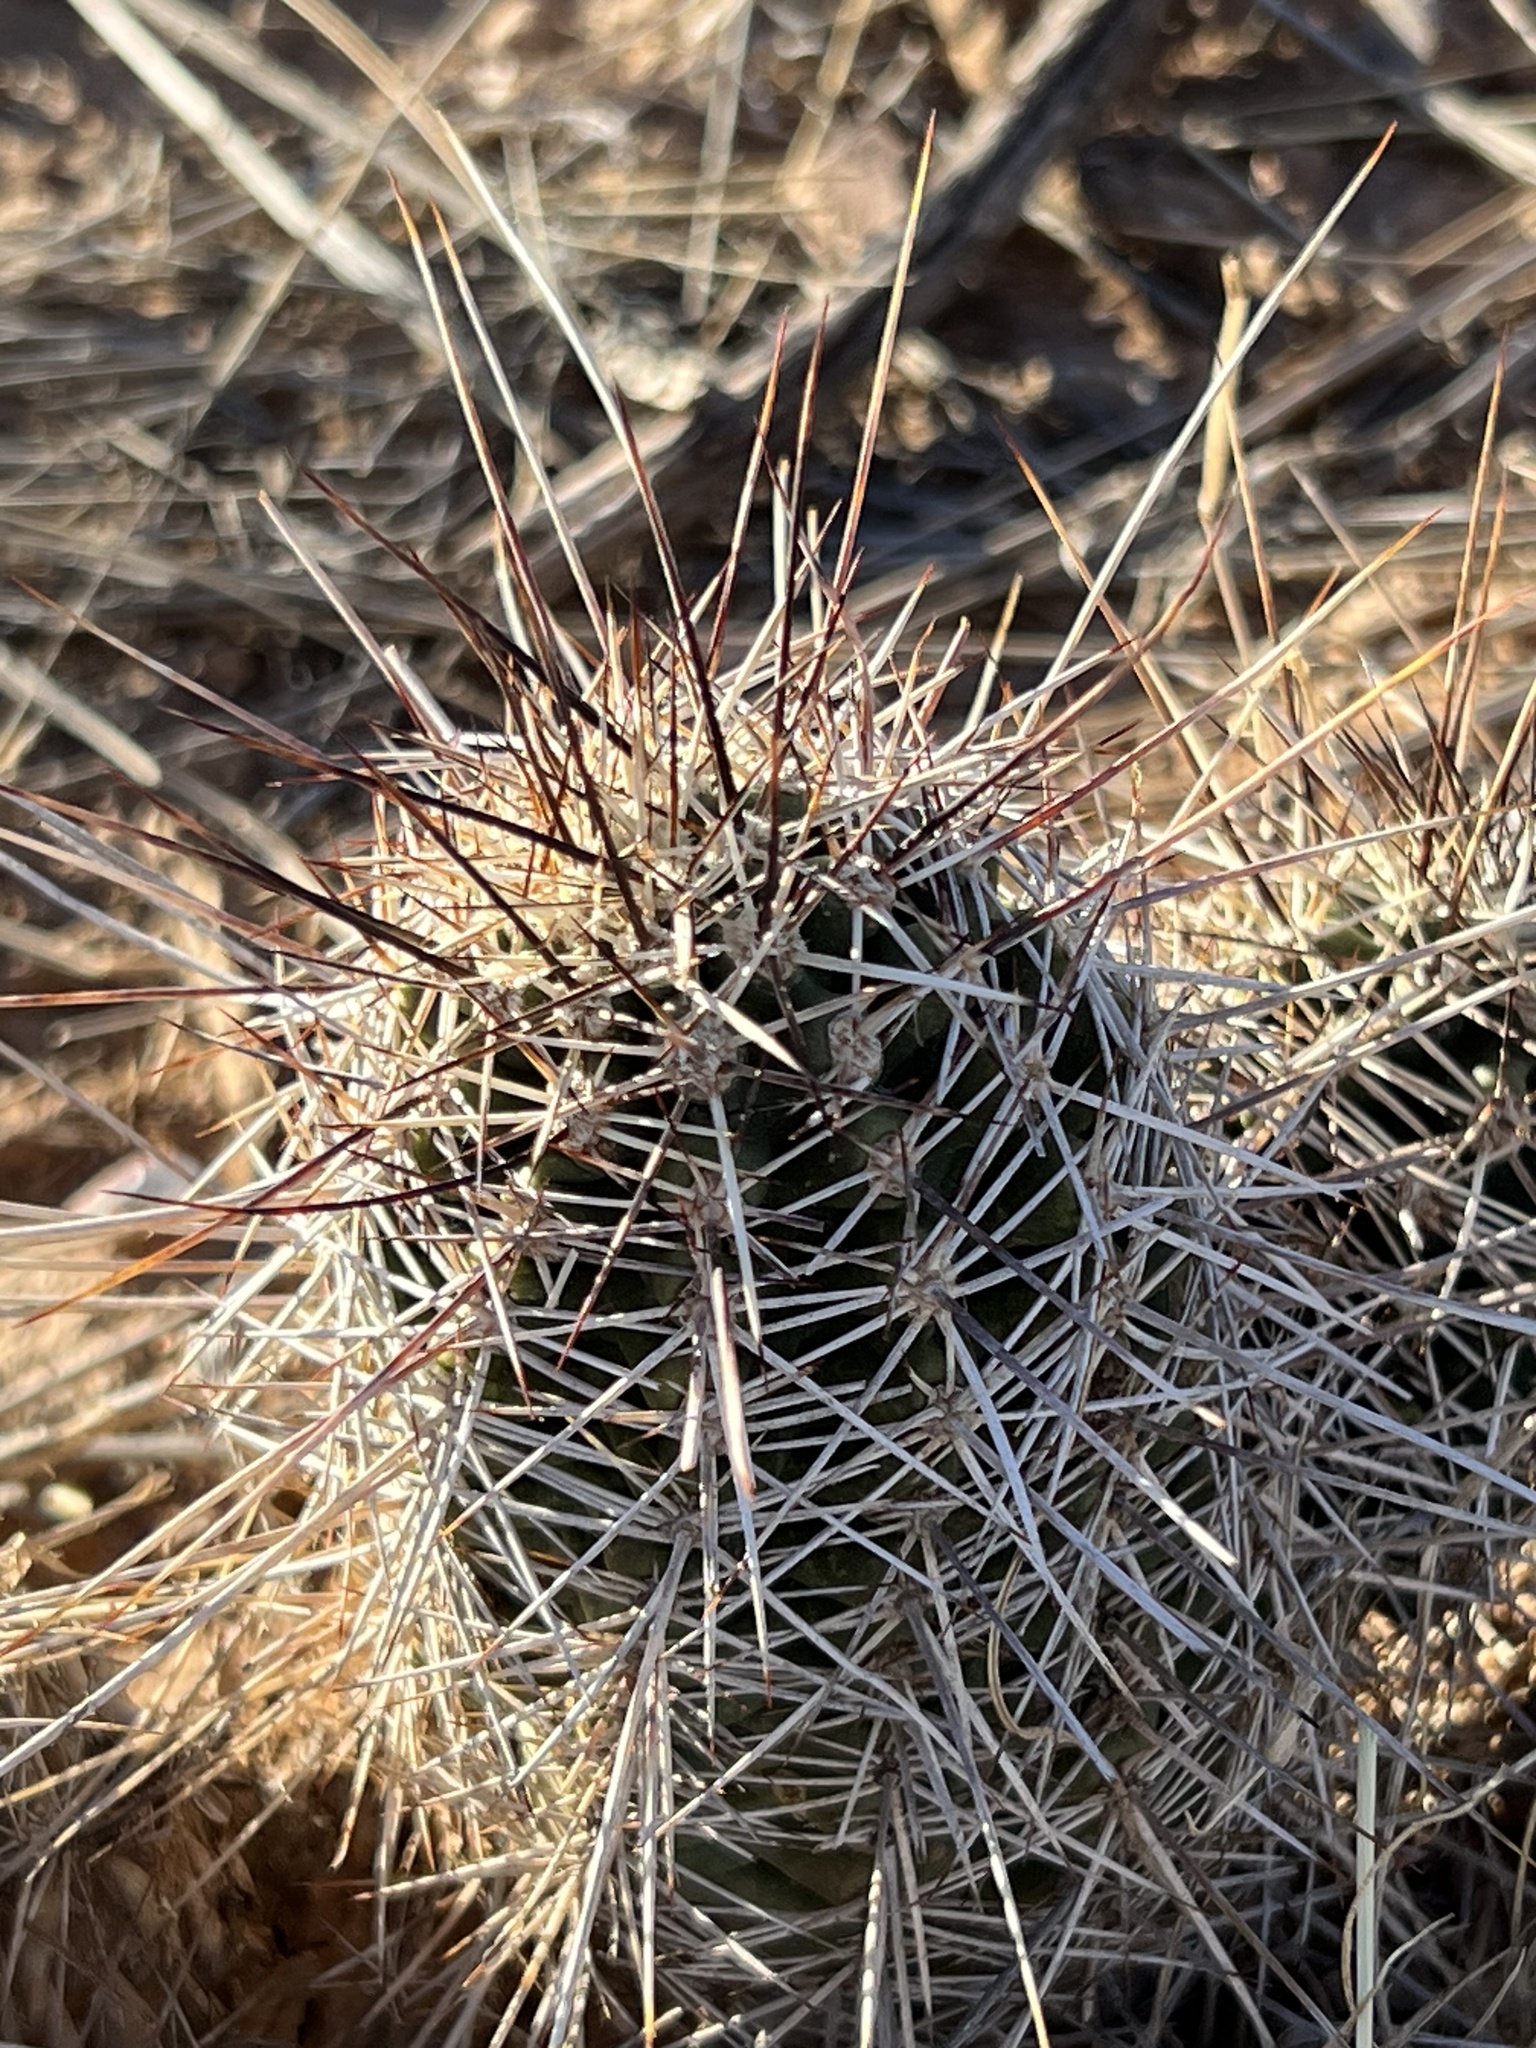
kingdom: Plantae
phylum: Tracheophyta
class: Magnoliopsida
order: Caryophyllales
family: Cactaceae
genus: Echinocereus
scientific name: Echinocereus fendleri
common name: Fendler's hedgehog cactus
